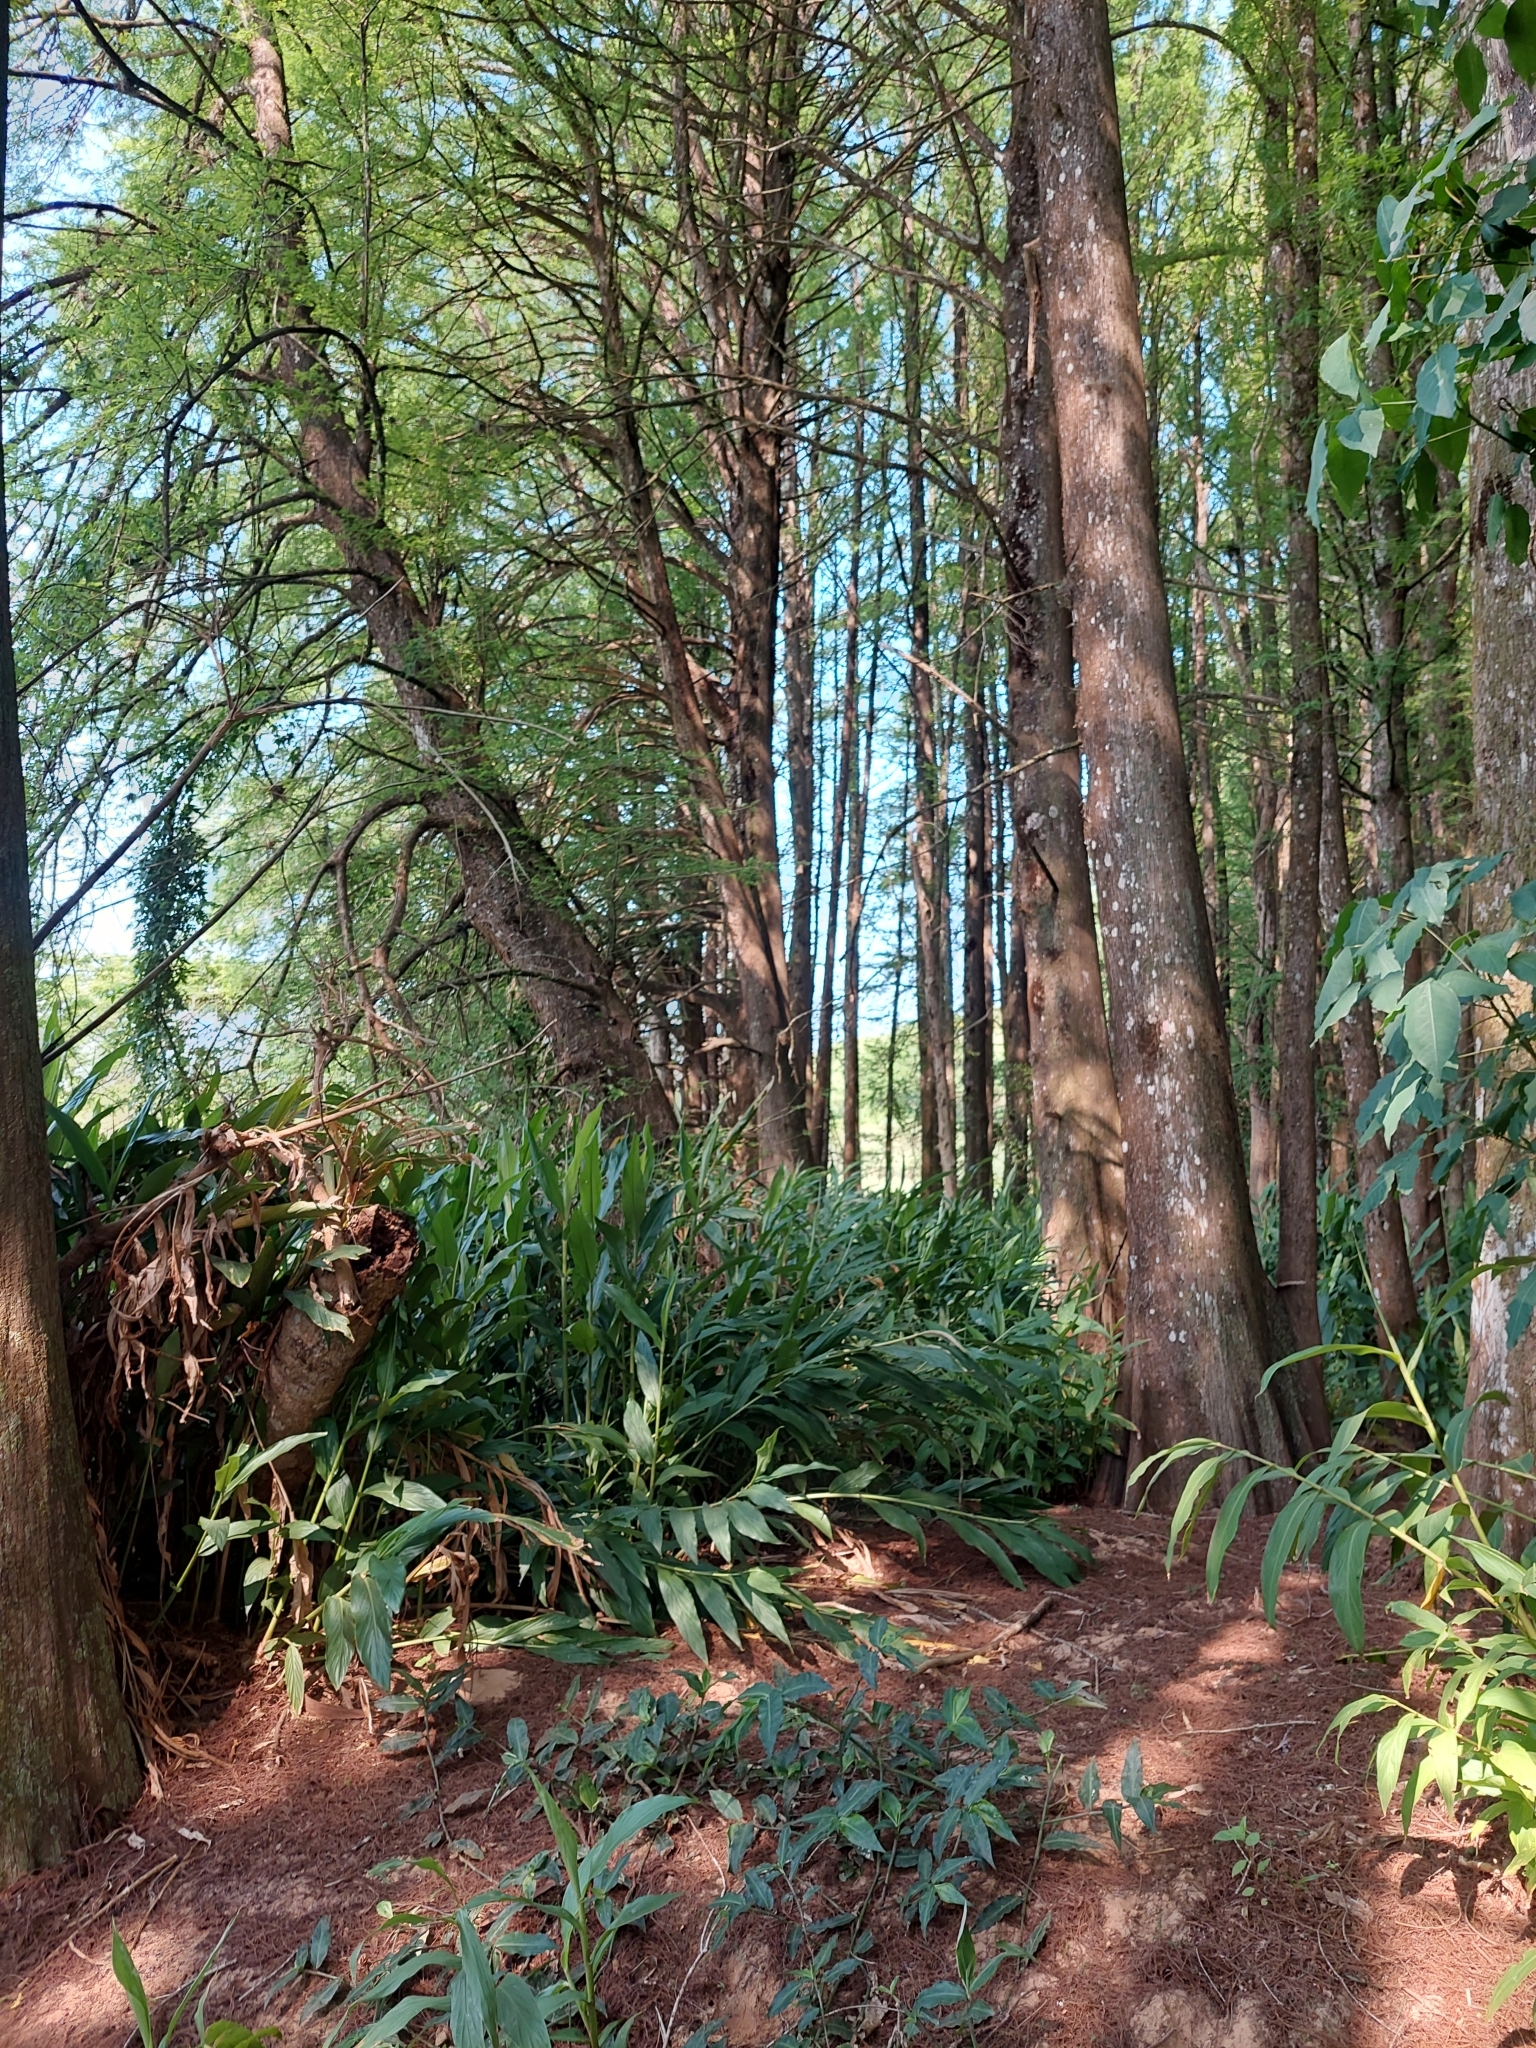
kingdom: Plantae
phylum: Tracheophyta
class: Liliopsida
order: Zingiberales
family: Zingiberaceae
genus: Hedychium
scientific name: Hedychium coronarium
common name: White garland-lily
